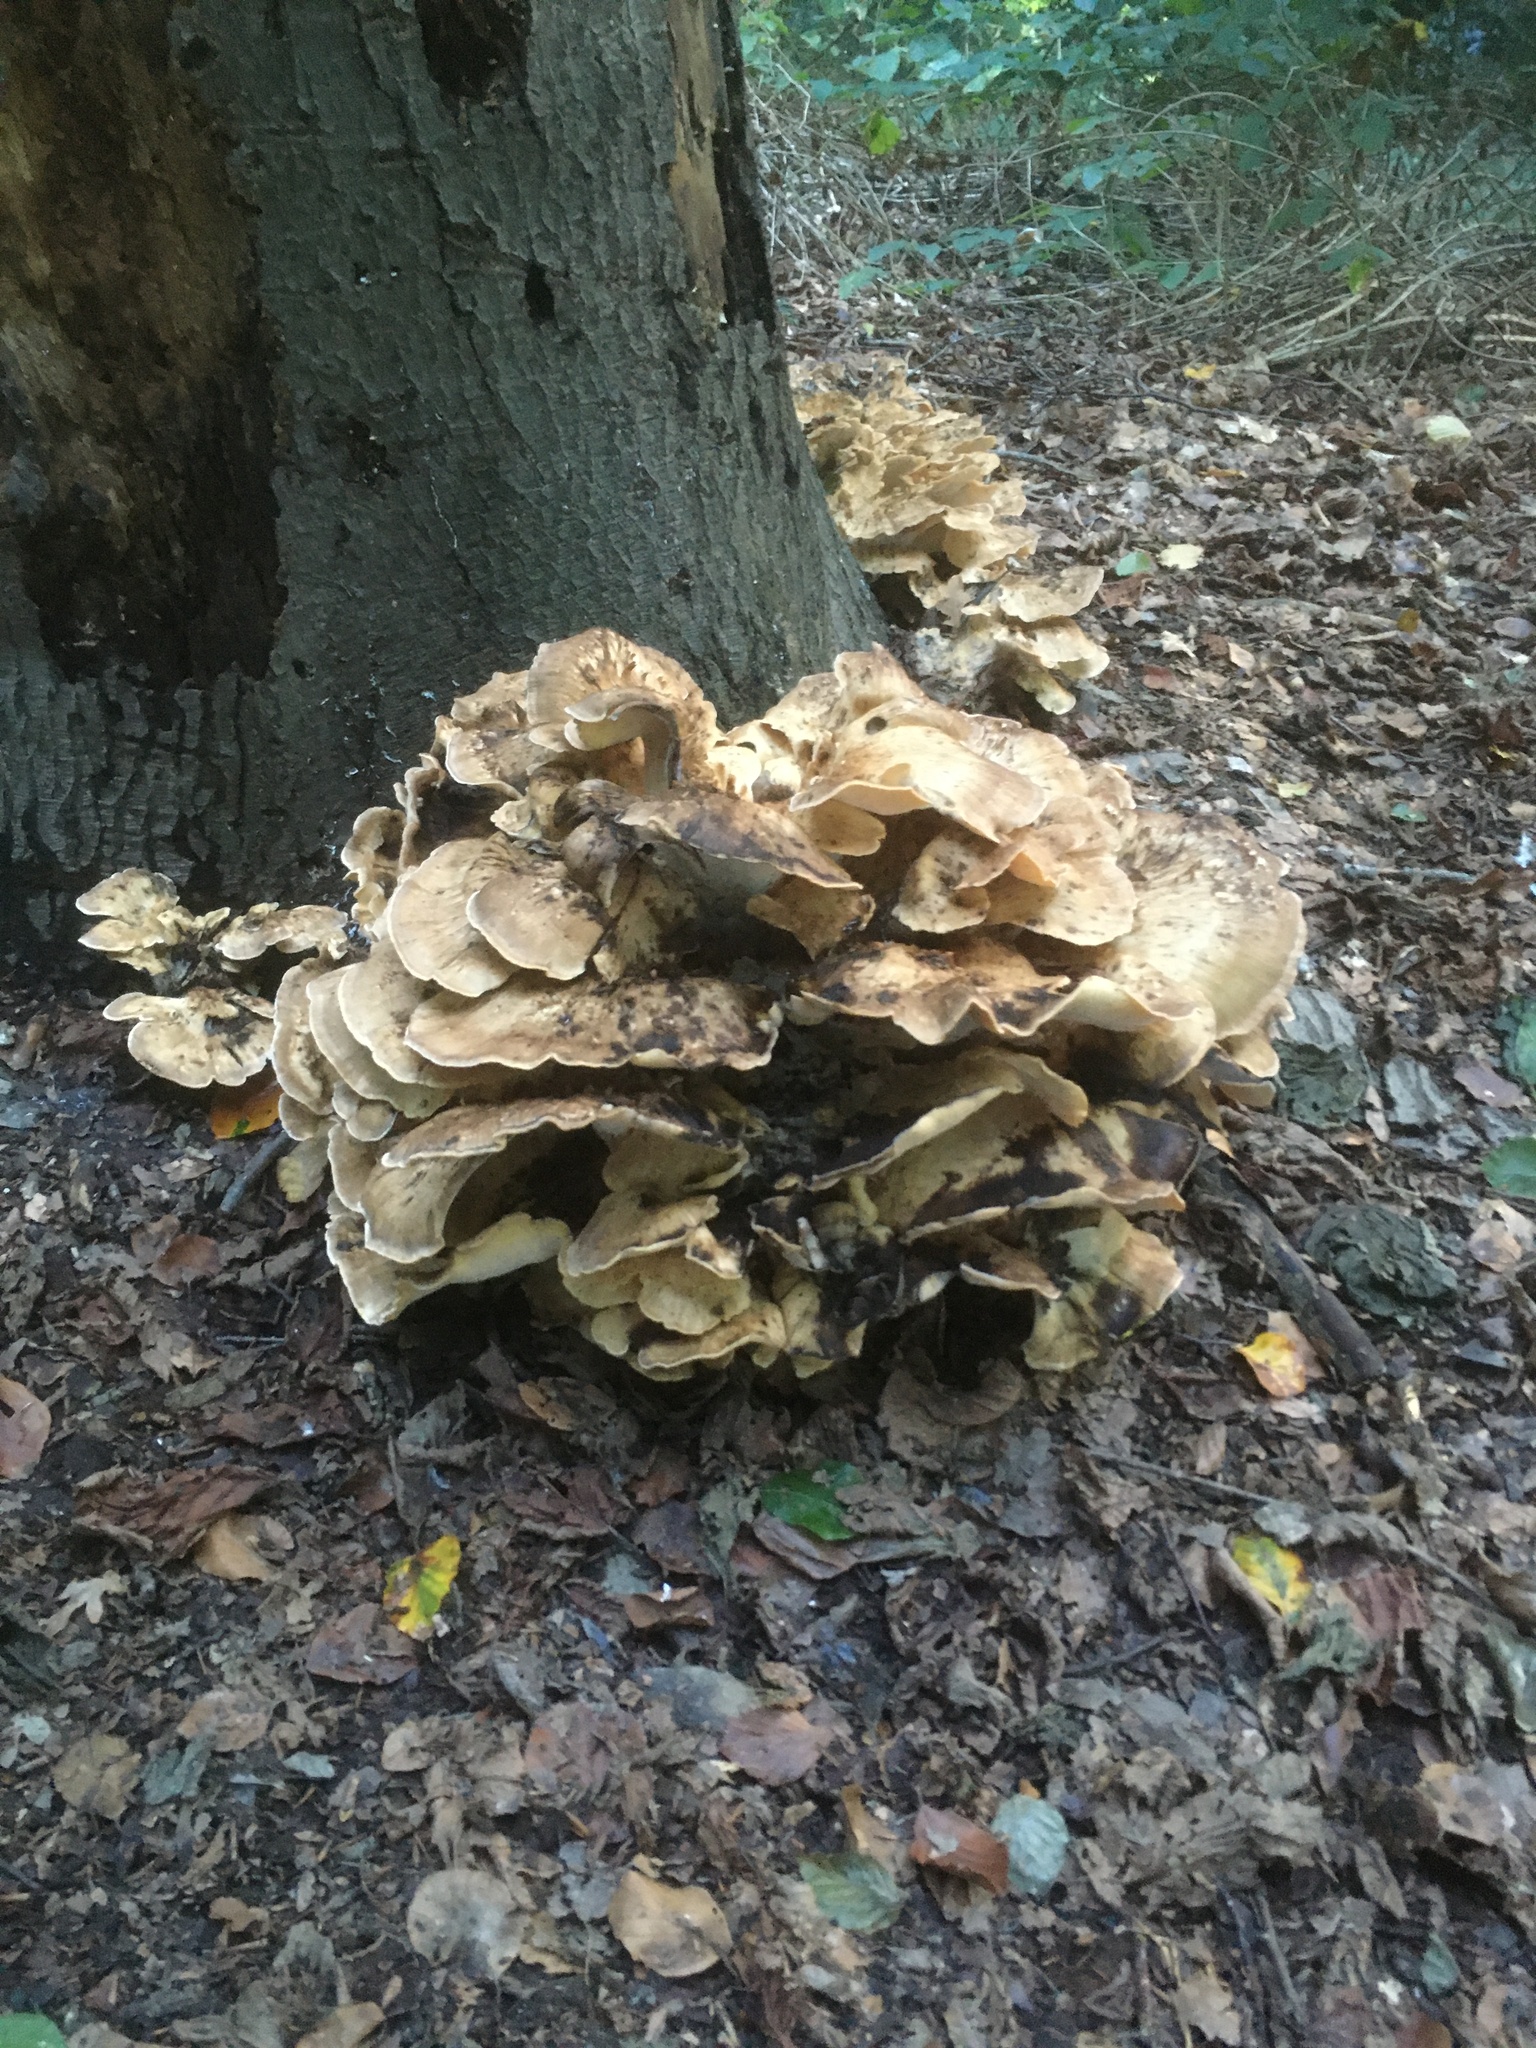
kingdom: Fungi
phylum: Basidiomycota
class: Agaricomycetes
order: Polyporales
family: Meripilaceae
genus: Meripilus
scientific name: Meripilus giganteus
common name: Giant polypore
